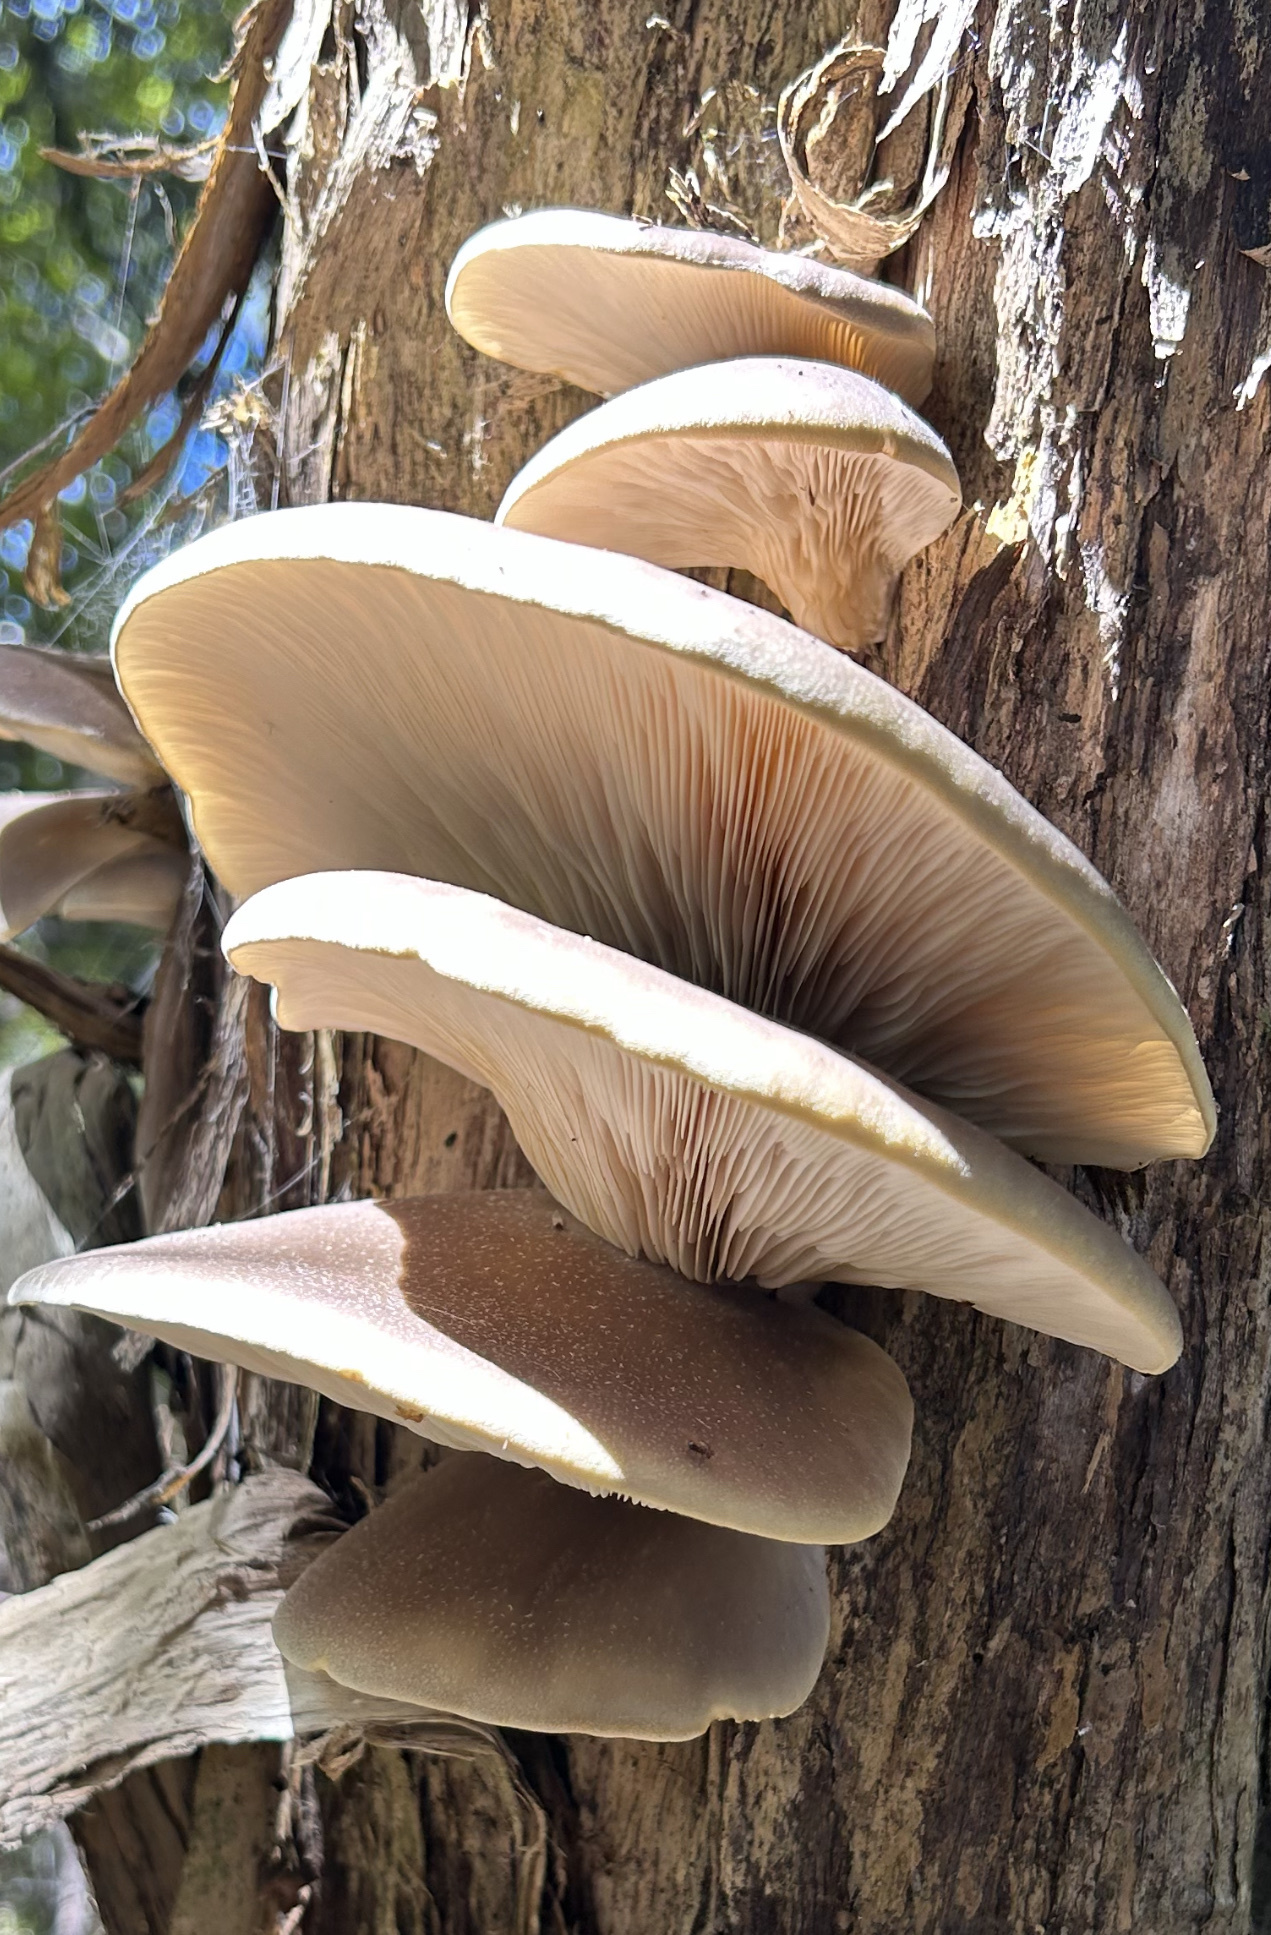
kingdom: Fungi
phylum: Basidiomycota
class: Agaricomycetes
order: Agaricales
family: Pleurotaceae
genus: Pleurotus
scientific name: Pleurotus australis
